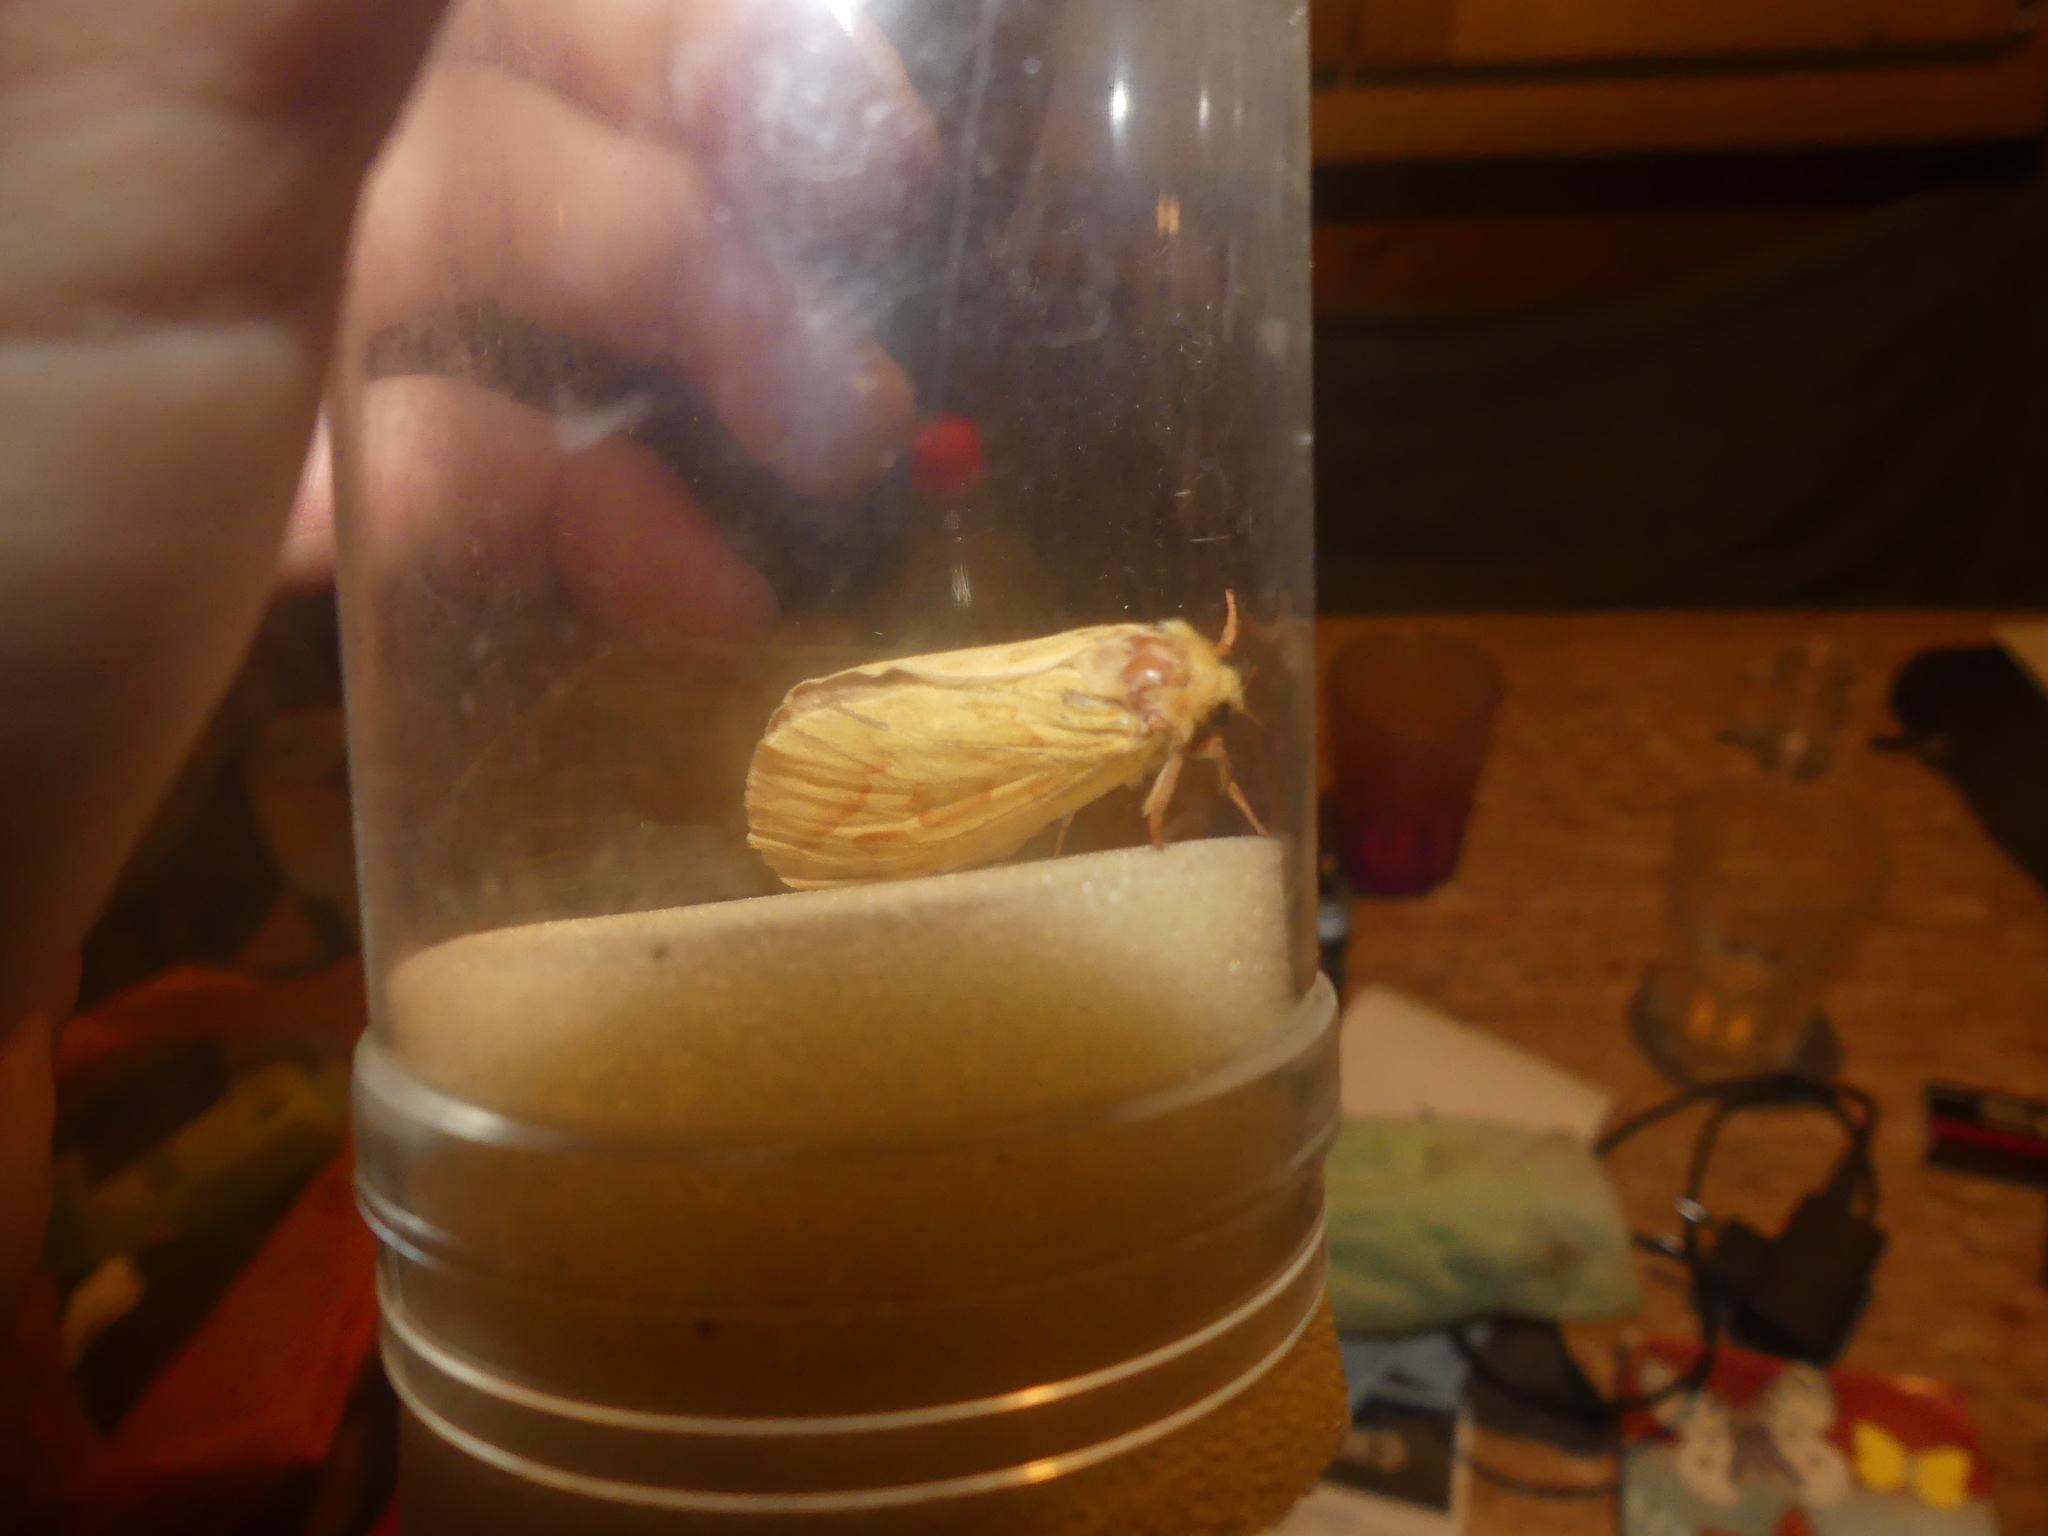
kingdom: Animalia
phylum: Arthropoda
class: Insecta
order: Lepidoptera
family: Hepialidae
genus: Hepialus
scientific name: Hepialus humuli
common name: Ghost moth
